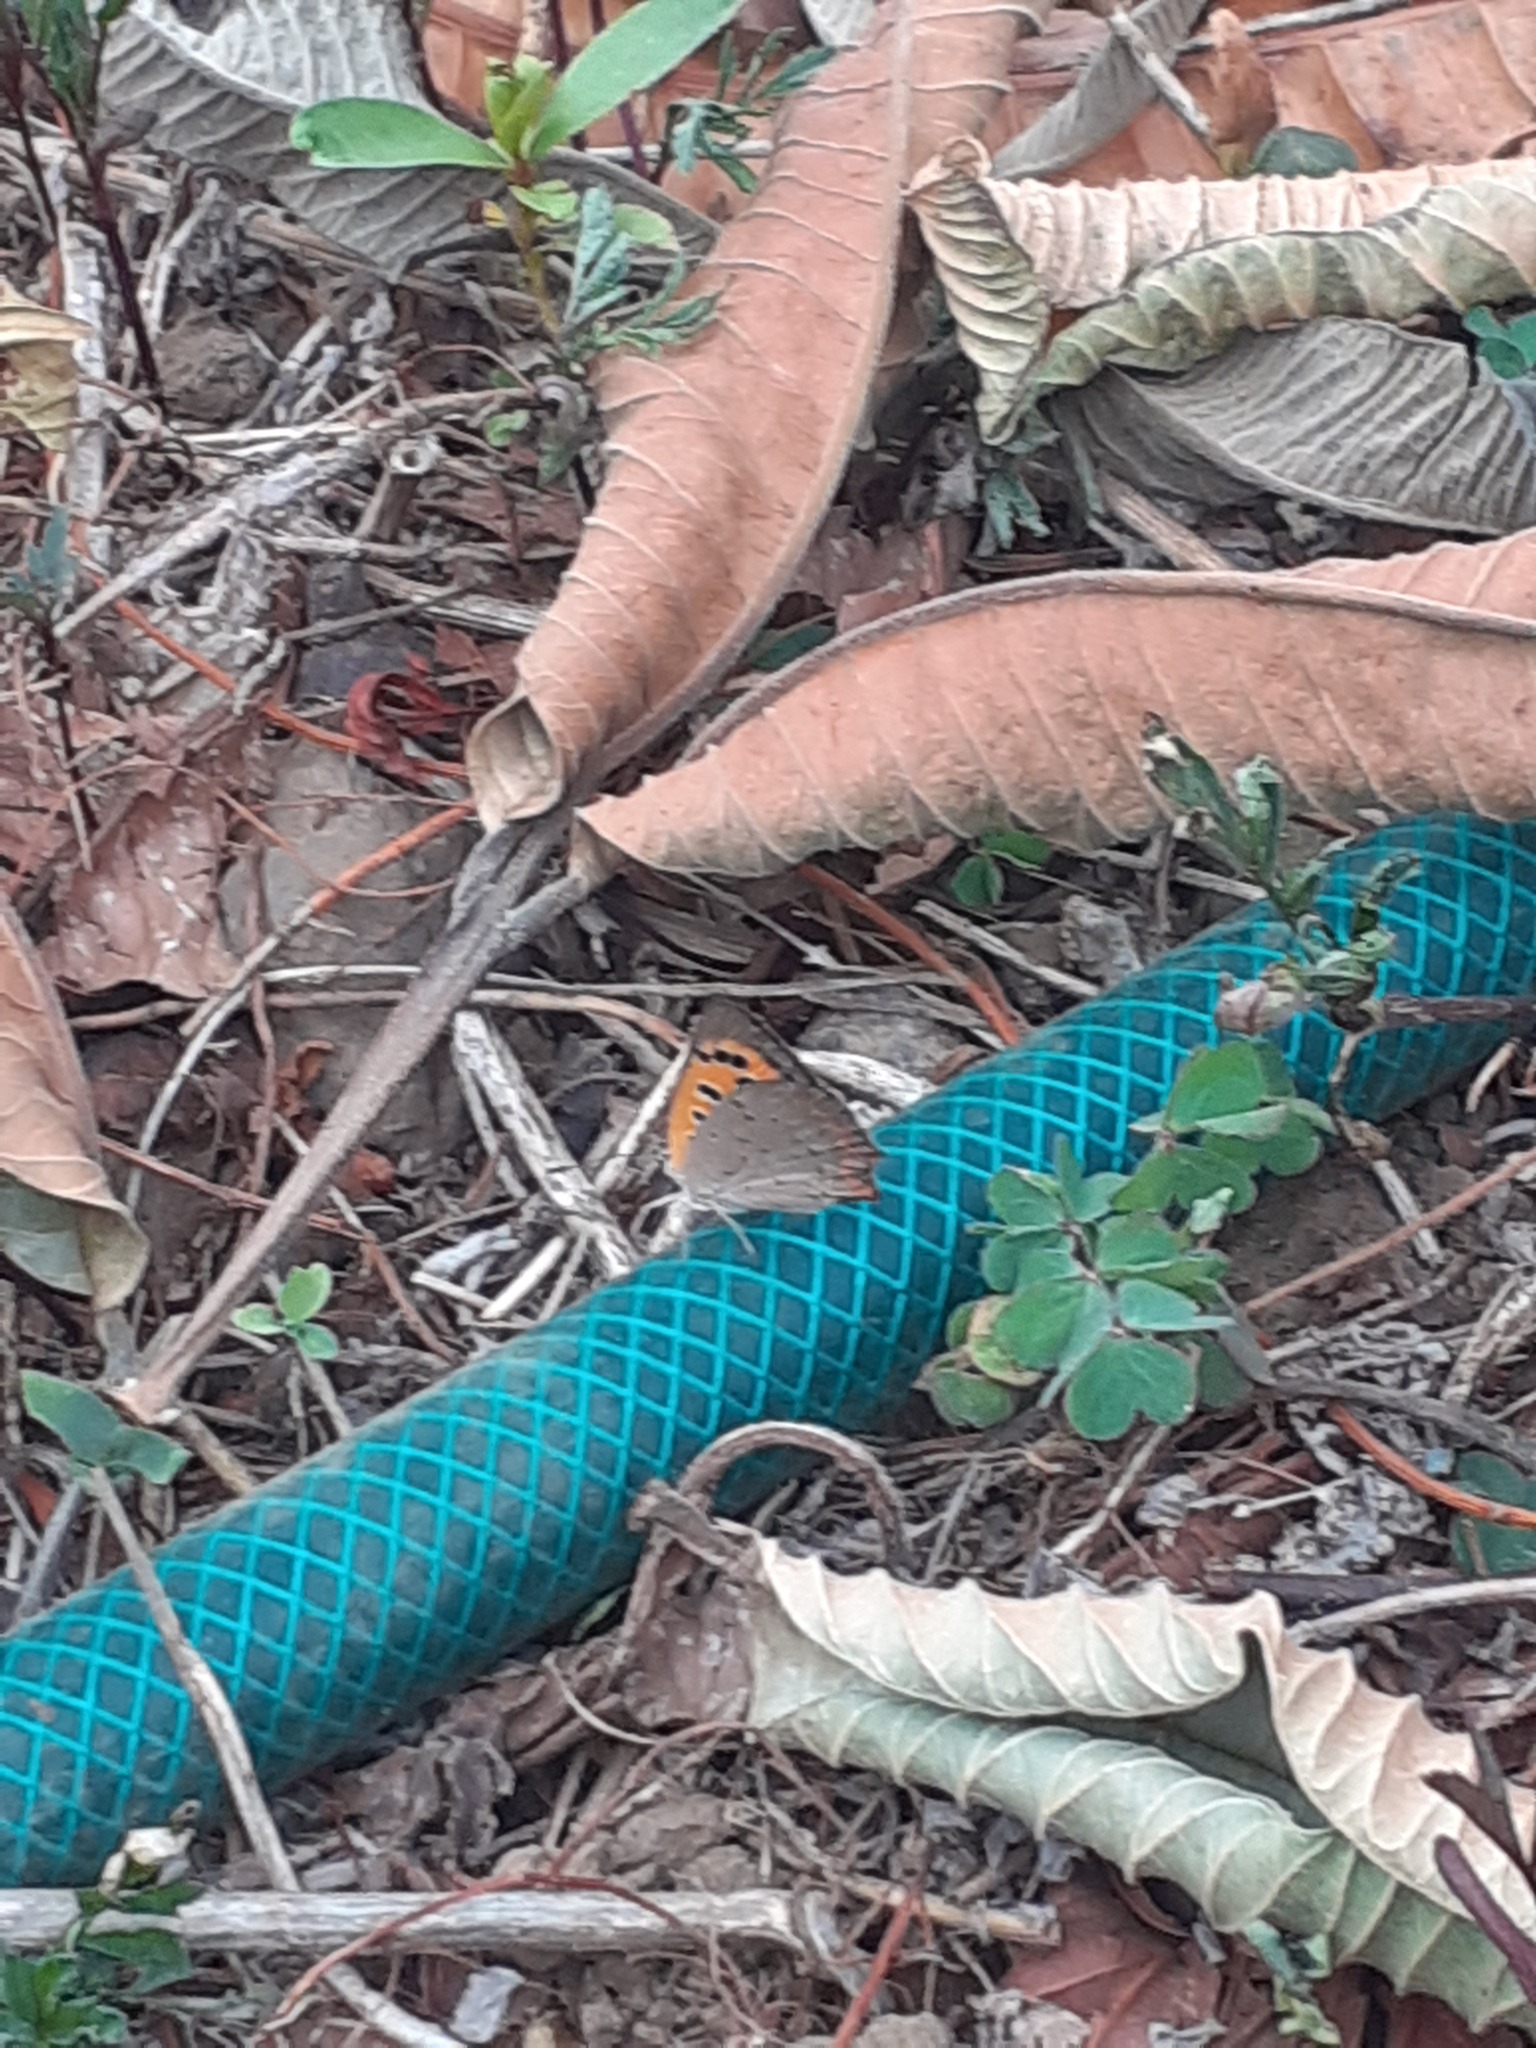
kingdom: Animalia
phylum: Arthropoda
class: Insecta
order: Lepidoptera
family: Lycaenidae
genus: Lycaena
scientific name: Lycaena phlaeas
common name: Small copper
